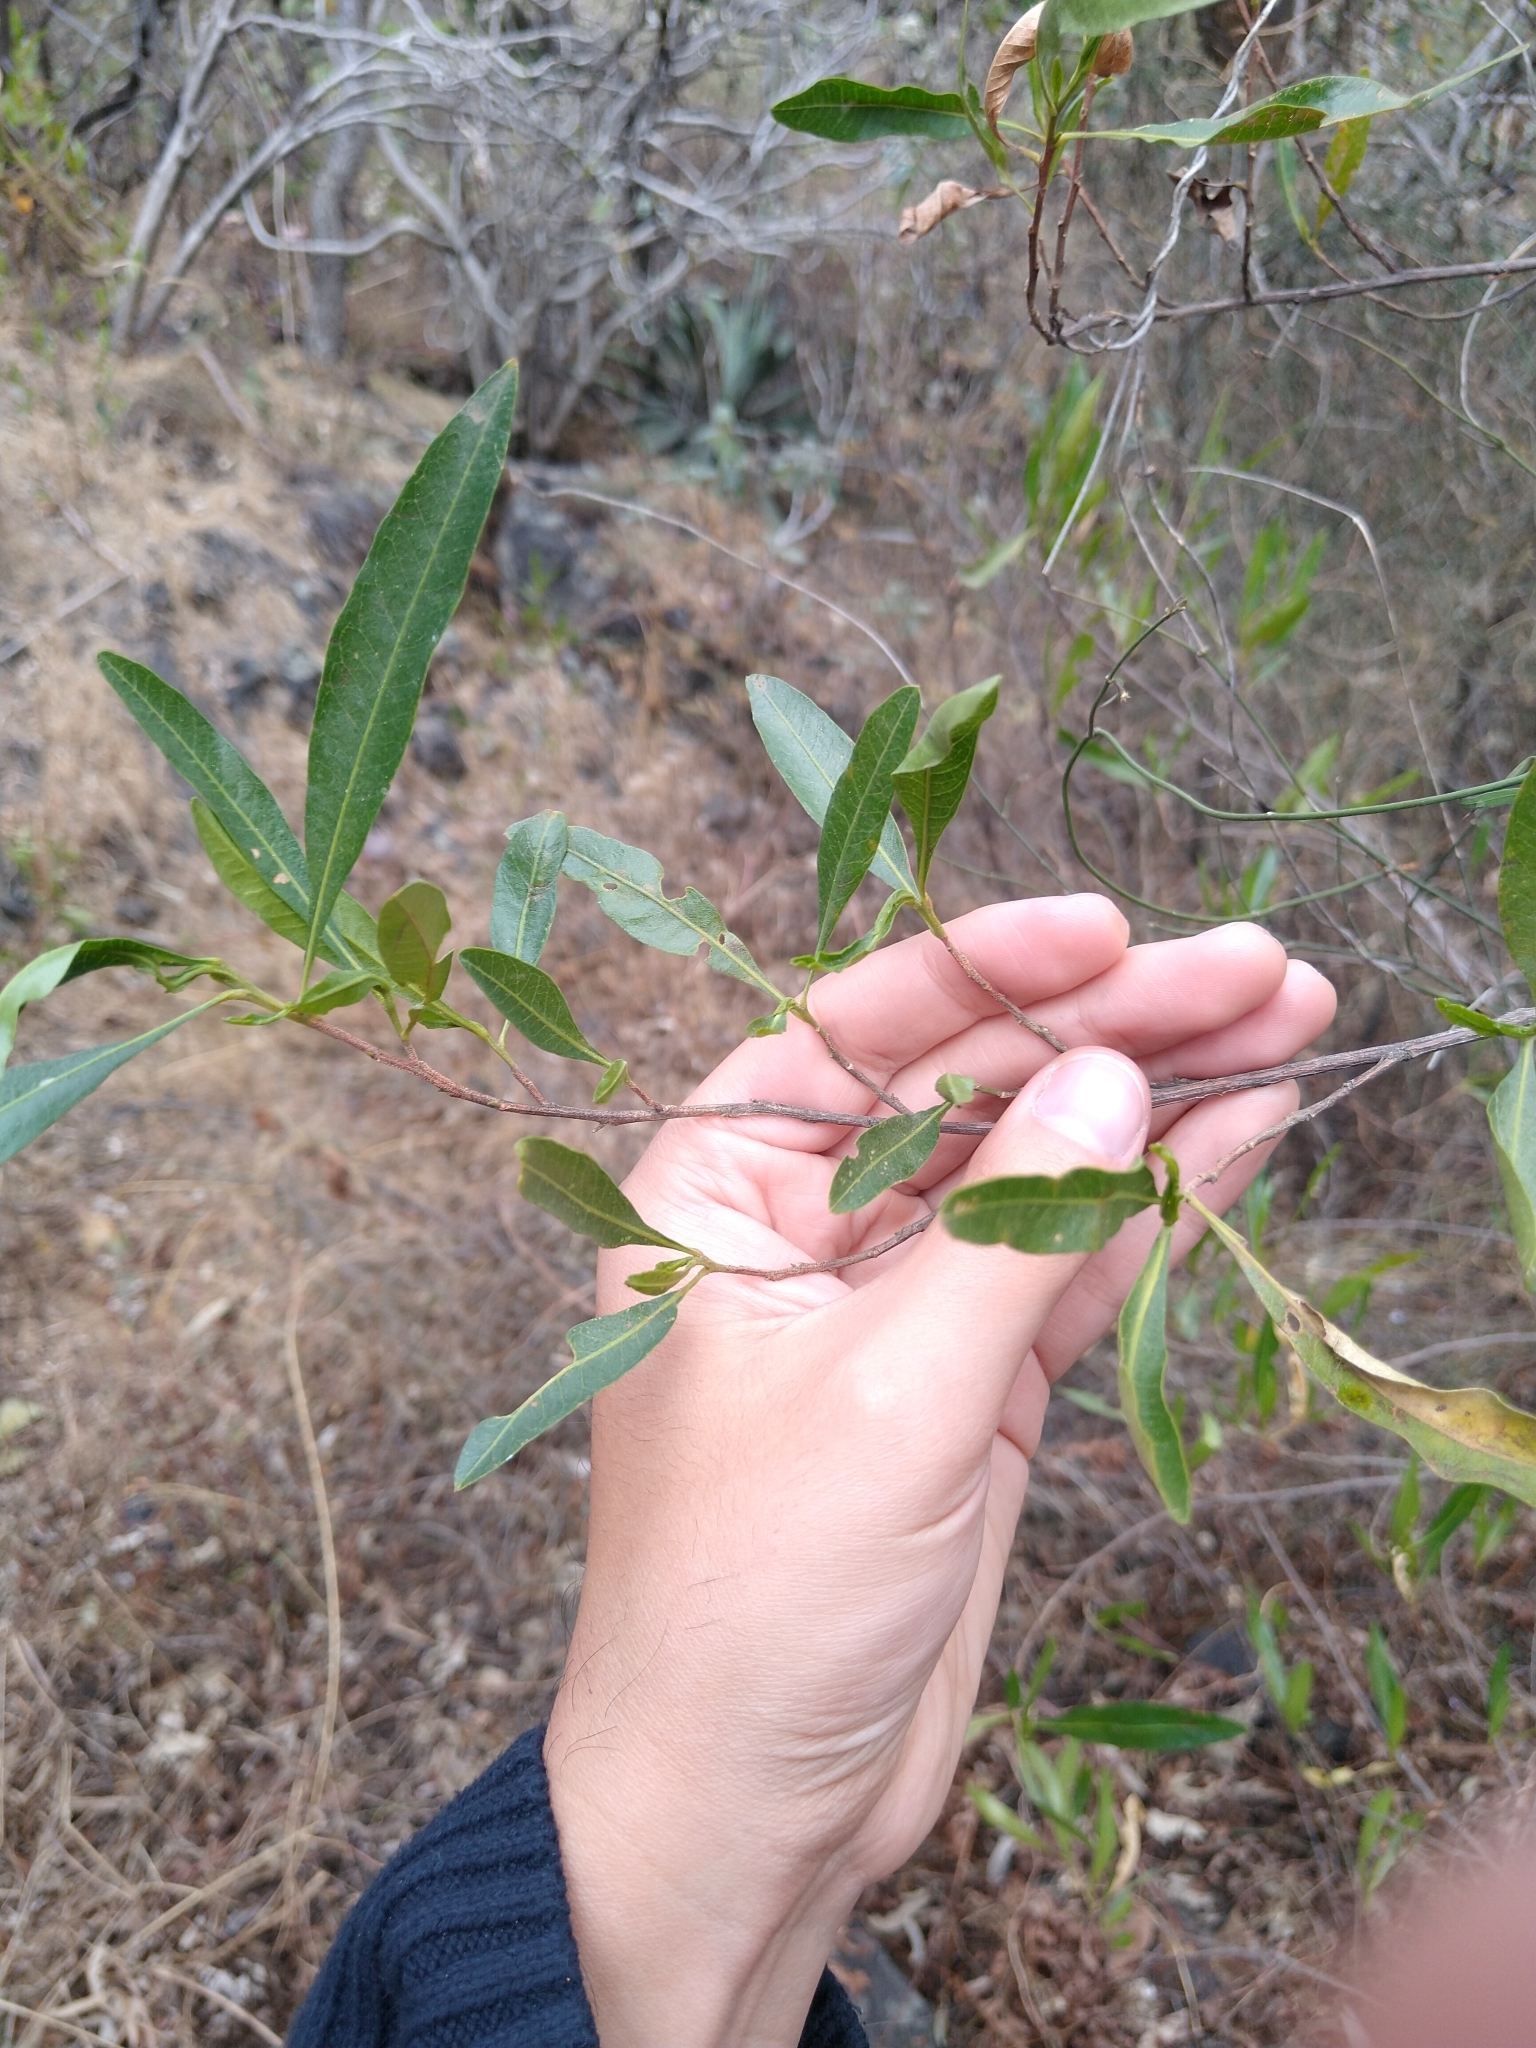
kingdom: Plantae
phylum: Tracheophyta
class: Magnoliopsida
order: Sapindales
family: Sapindaceae
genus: Dodonaea
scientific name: Dodonaea viscosa
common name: Hopbush
